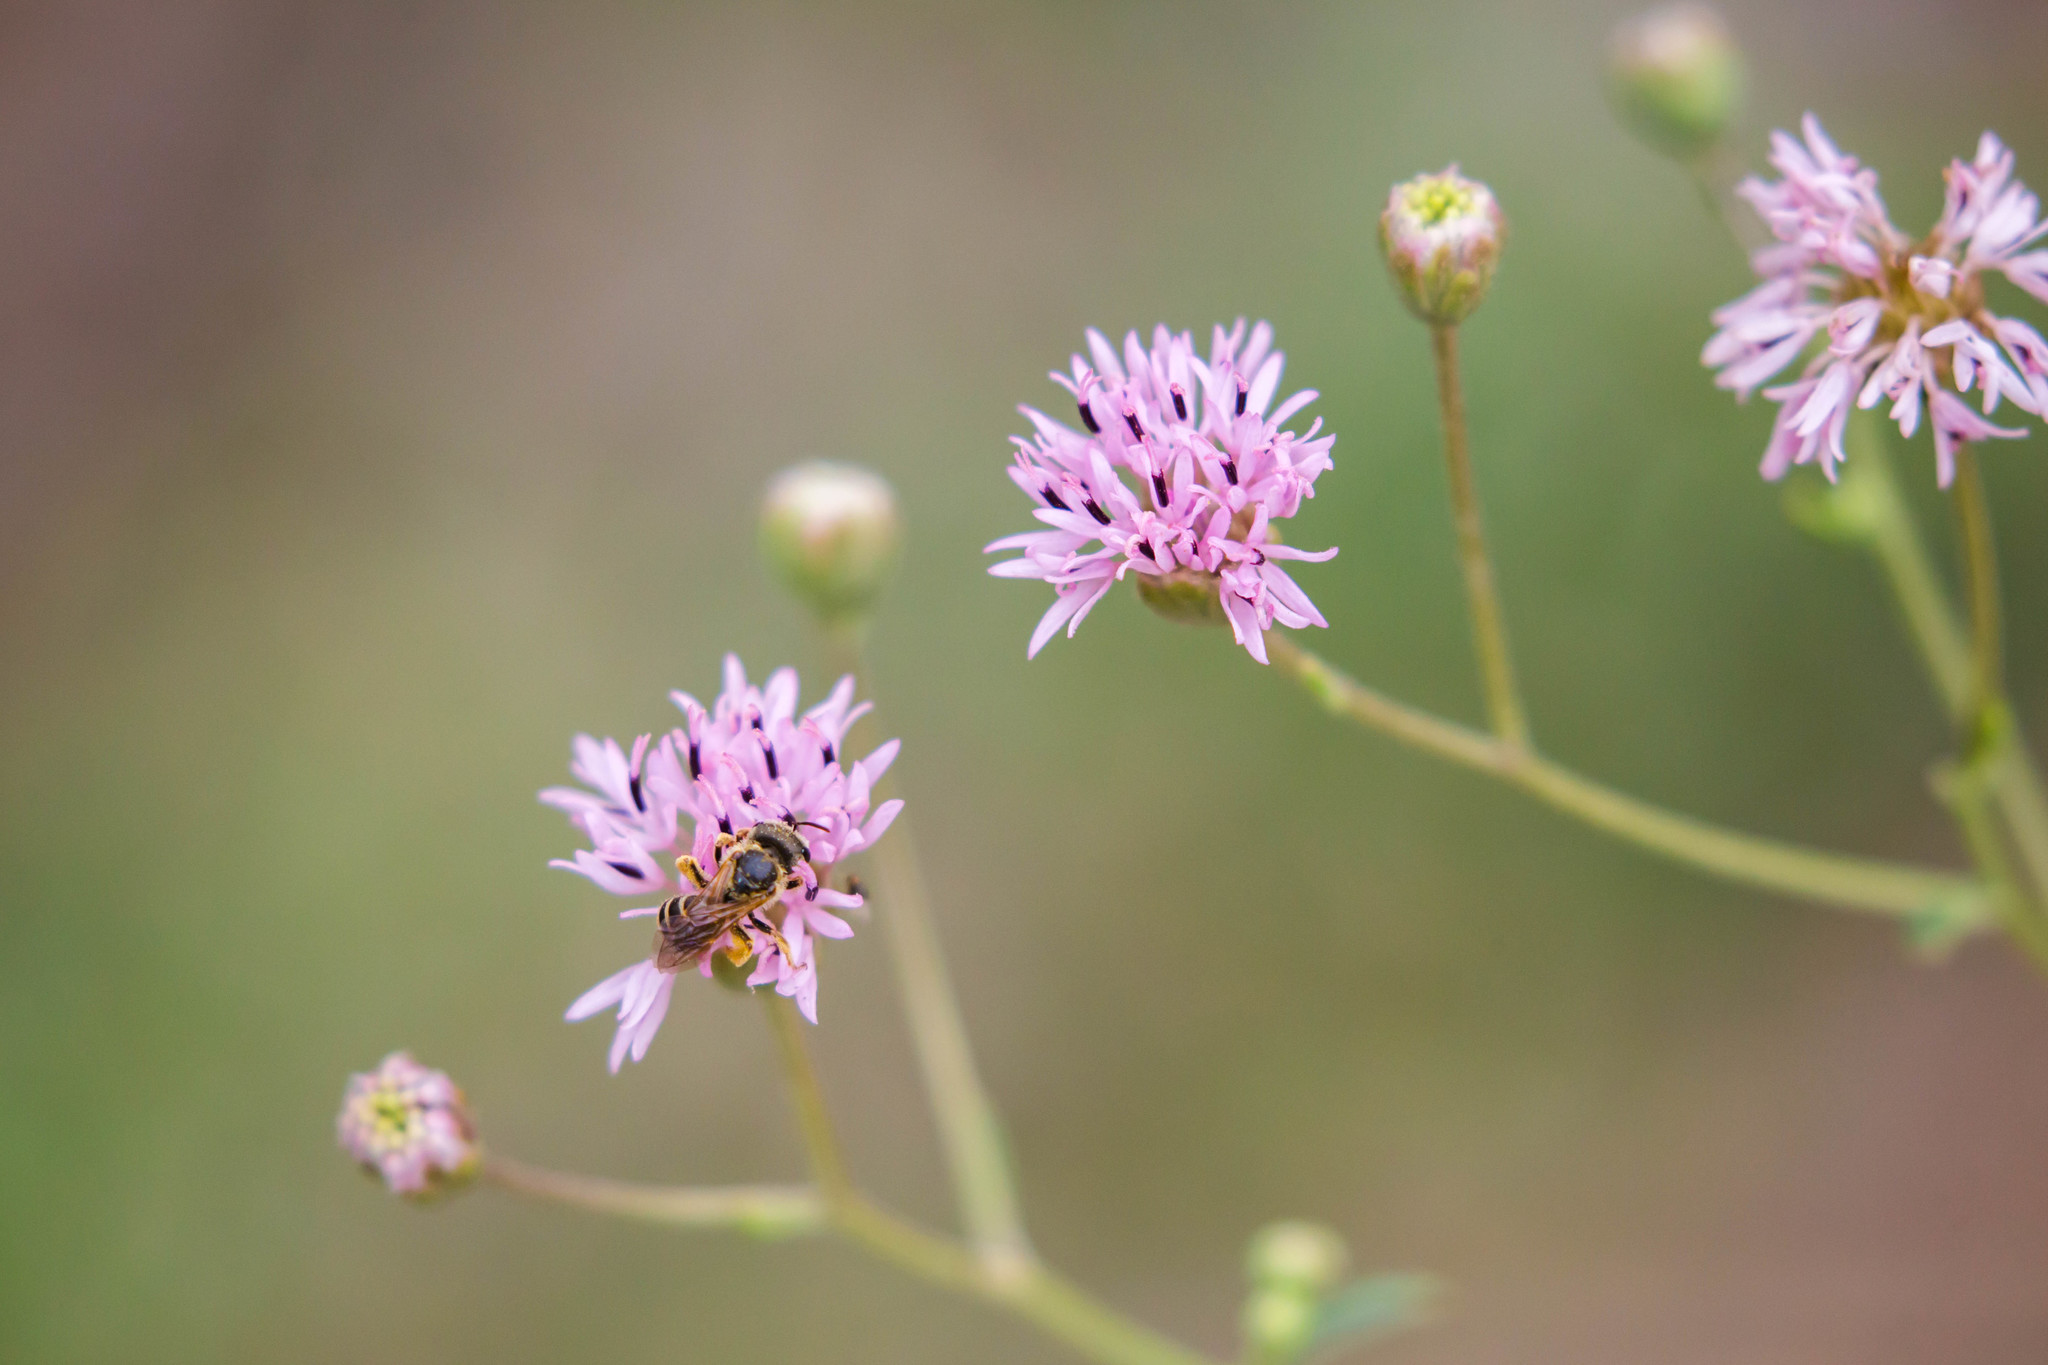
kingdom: Animalia
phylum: Arthropoda
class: Insecta
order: Hymenoptera
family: Halictidae
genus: Halictus
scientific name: Halictus ligatus
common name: Ligated furrow bee
